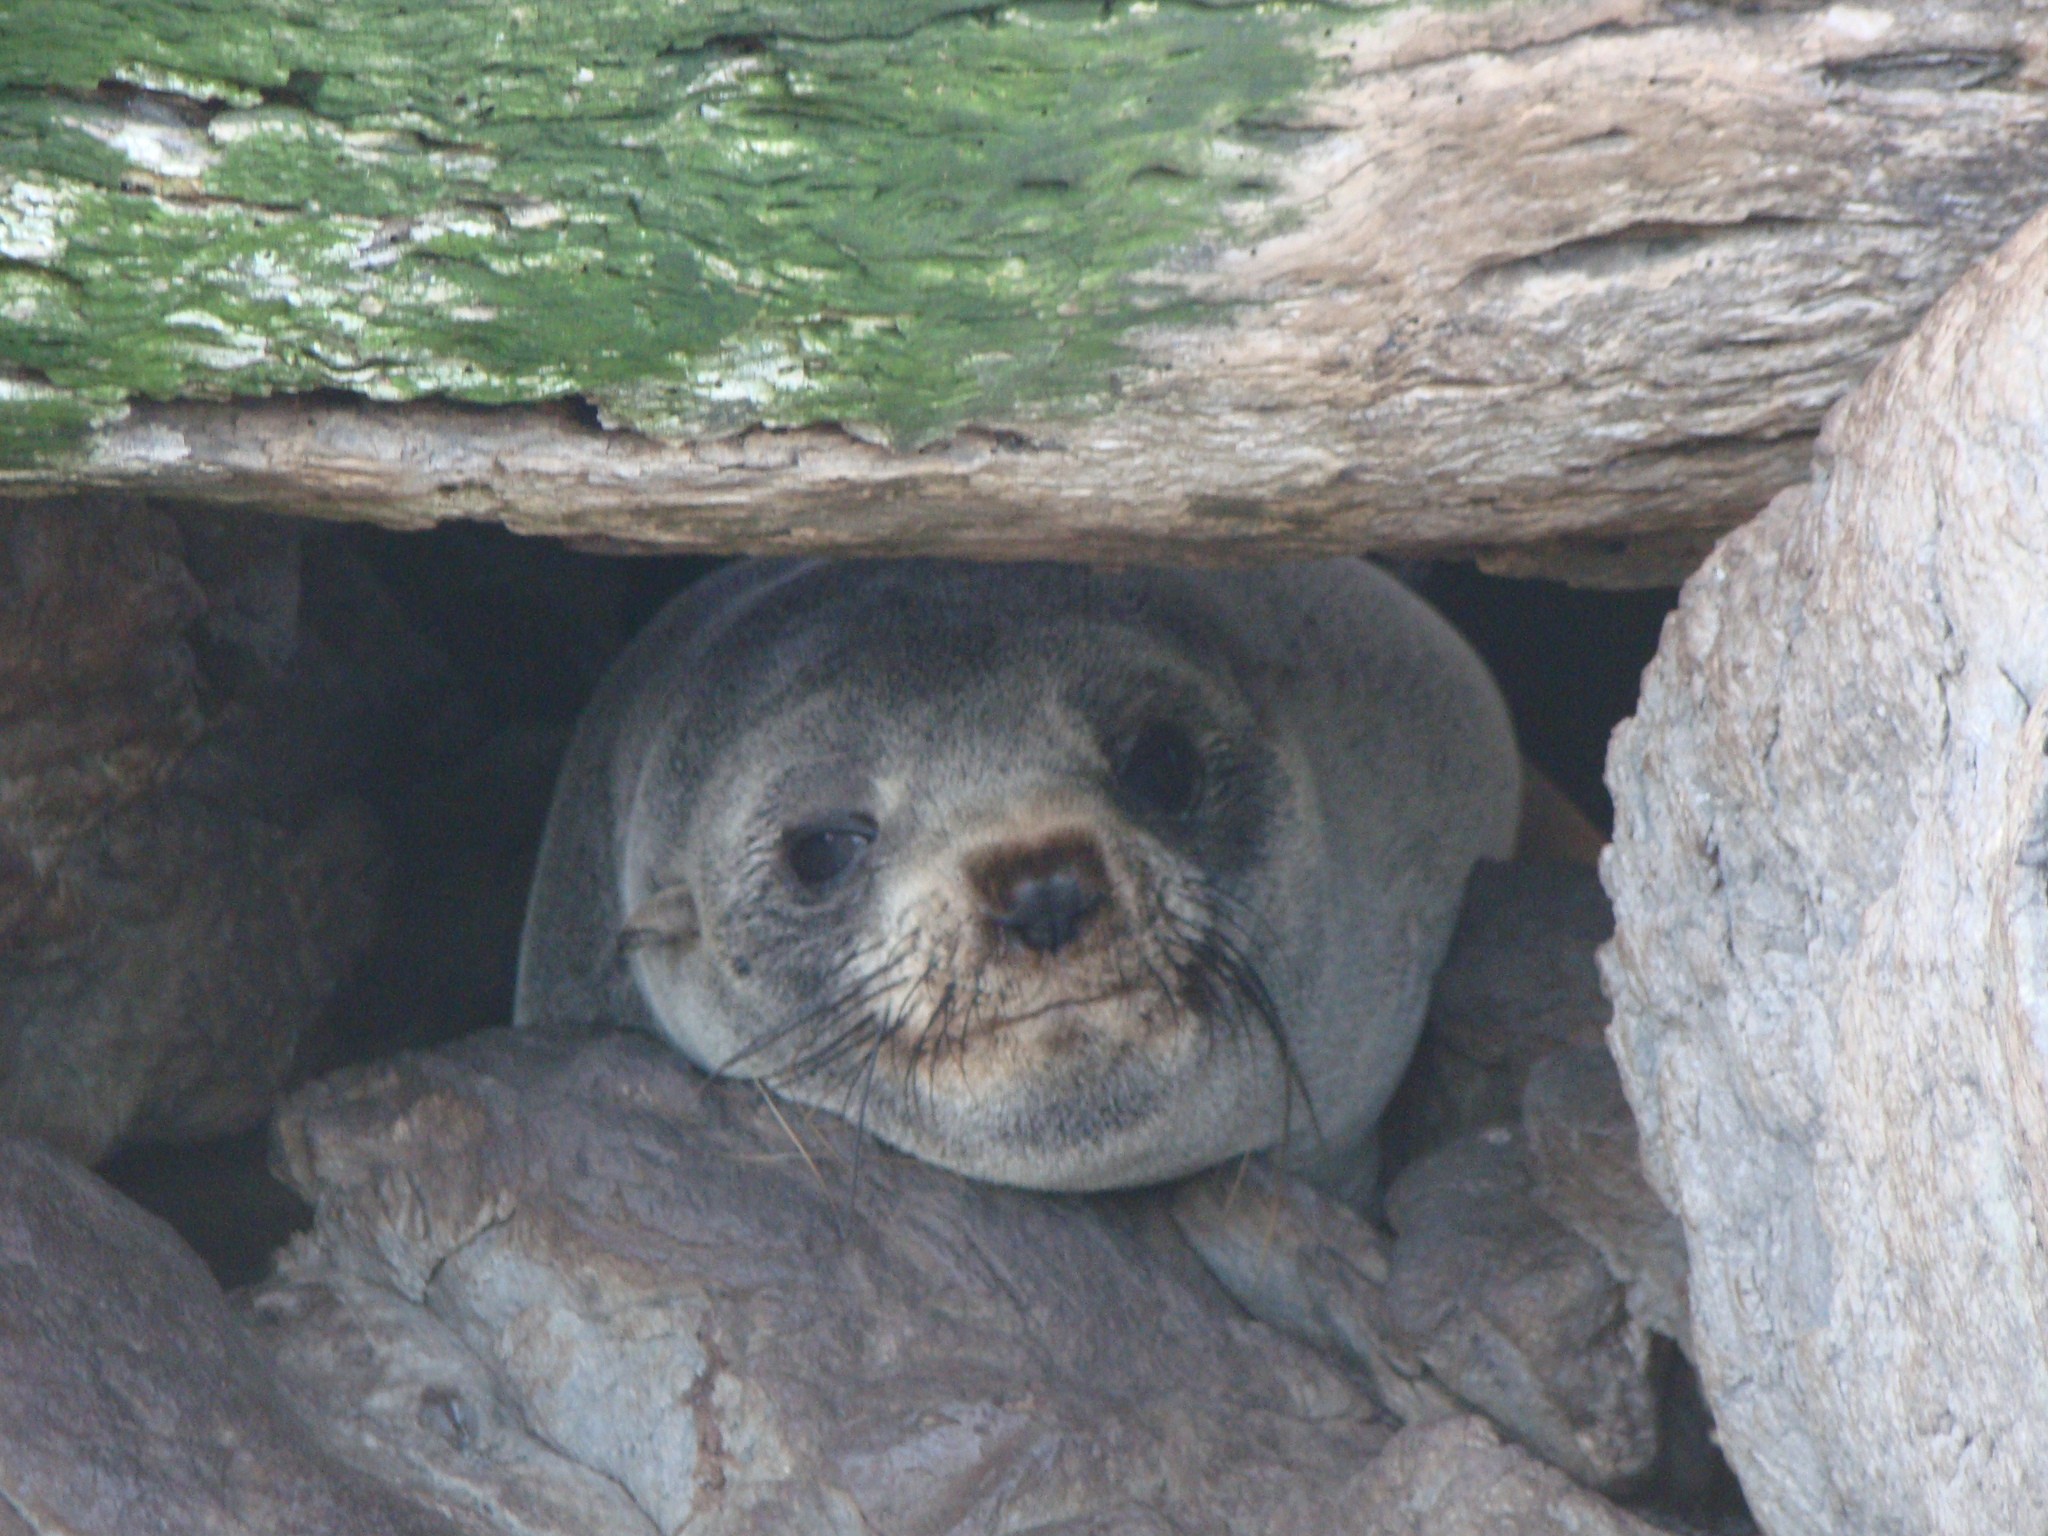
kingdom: Animalia
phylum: Chordata
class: Mammalia
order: Carnivora
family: Otariidae
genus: Arctocephalus
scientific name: Arctocephalus forsteri
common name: New zealand fur seal
